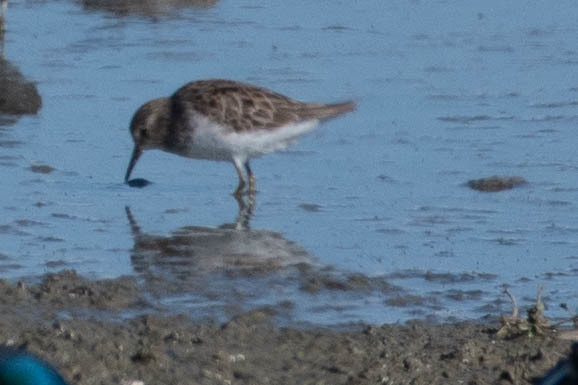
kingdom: Animalia
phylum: Chordata
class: Aves
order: Charadriiformes
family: Scolopacidae
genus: Calidris
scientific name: Calidris minutilla
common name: Least sandpiper
